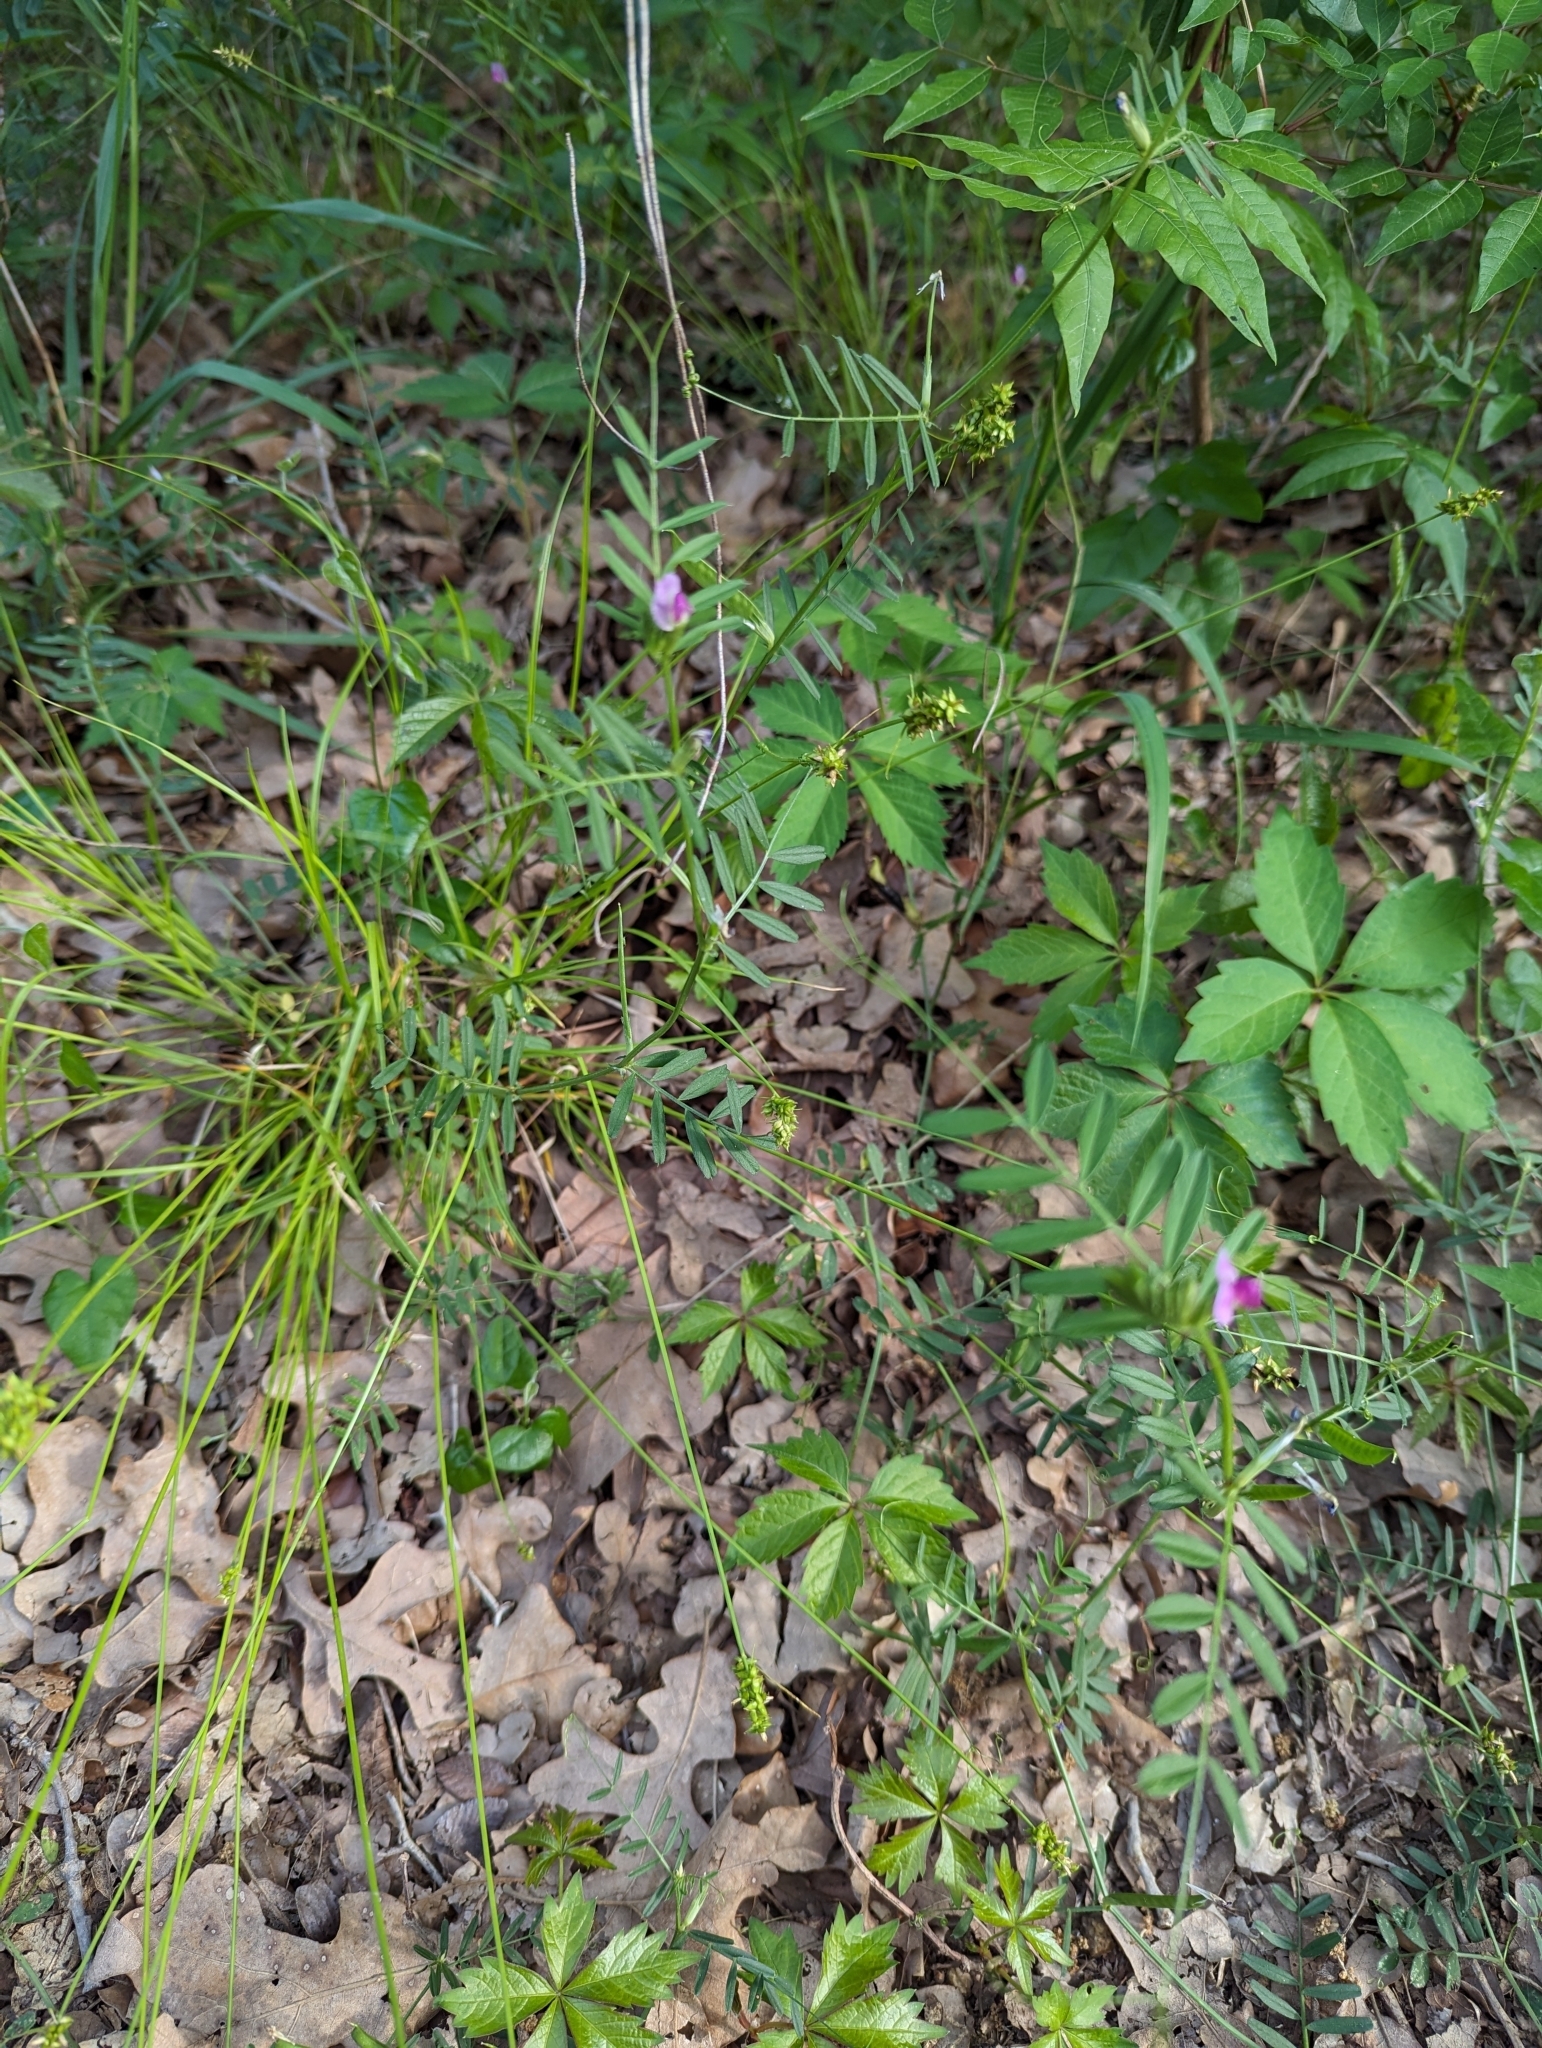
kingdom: Plantae
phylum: Tracheophyta
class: Magnoliopsida
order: Fabales
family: Fabaceae
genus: Vicia
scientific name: Vicia sativa
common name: Garden vetch
